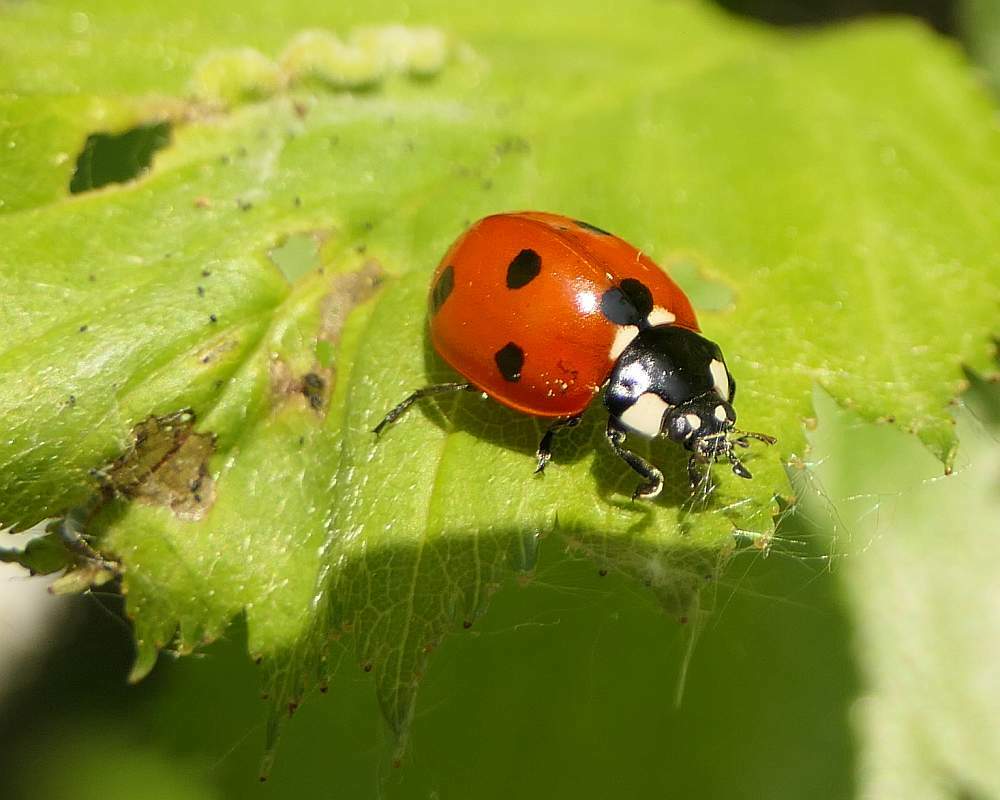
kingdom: Animalia
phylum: Arthropoda
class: Insecta
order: Coleoptera
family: Coccinellidae
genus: Coccinella
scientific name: Coccinella septempunctata
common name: Sevenspotted lady beetle
